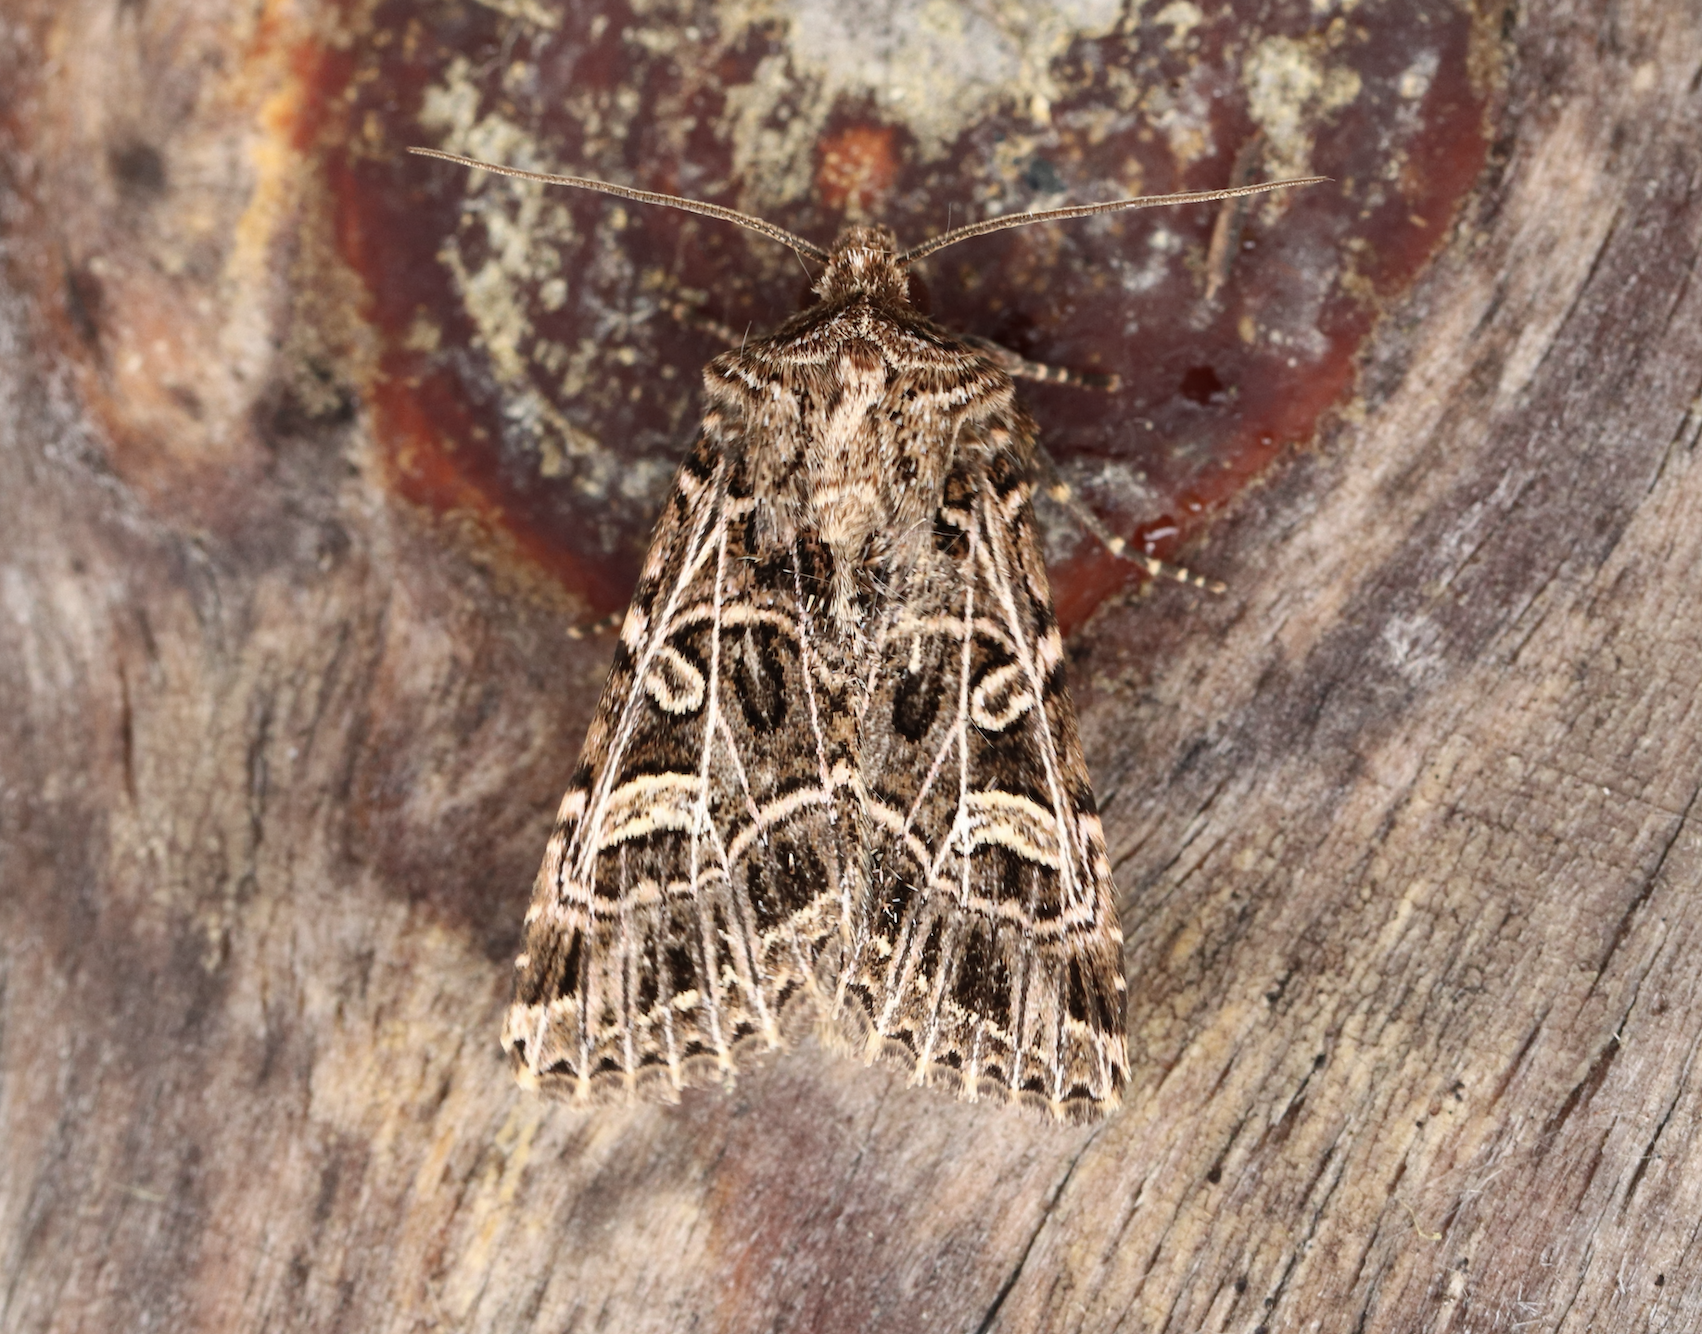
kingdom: Animalia
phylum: Arthropoda
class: Insecta
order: Lepidoptera
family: Noctuidae
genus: Sideridis
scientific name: Sideridis reticulata
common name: Bordered gothic
